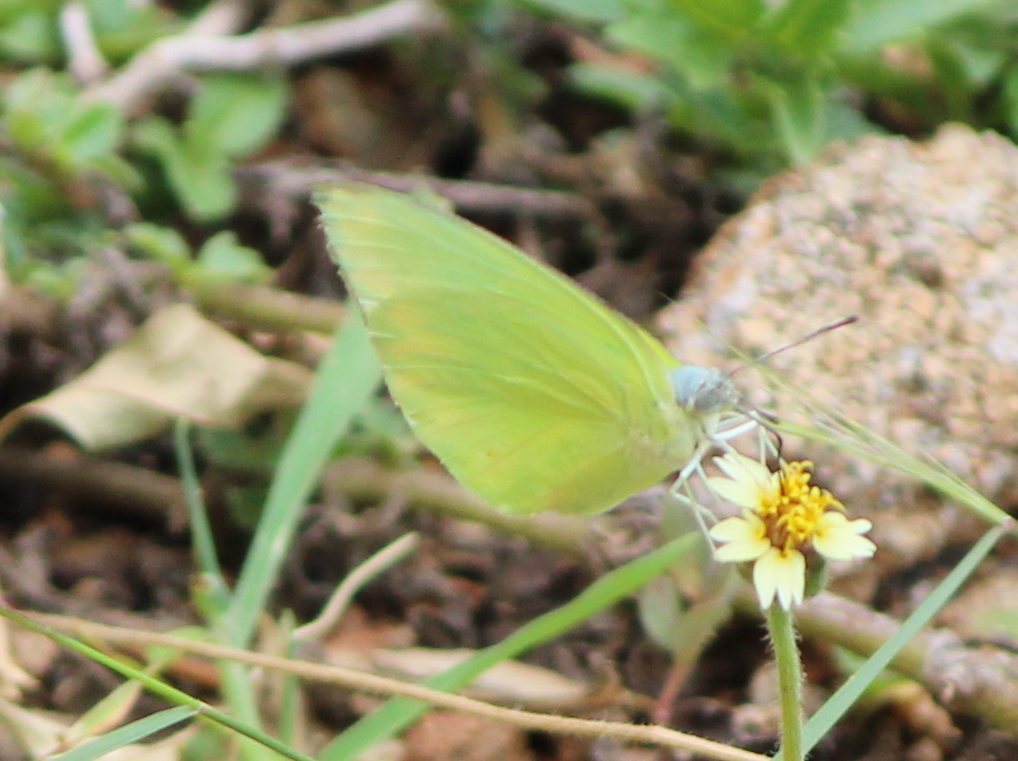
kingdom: Animalia
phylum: Arthropoda
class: Insecta
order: Lepidoptera
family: Pieridae
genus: Catopsilia
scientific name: Catopsilia pomona
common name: Common emigrant
